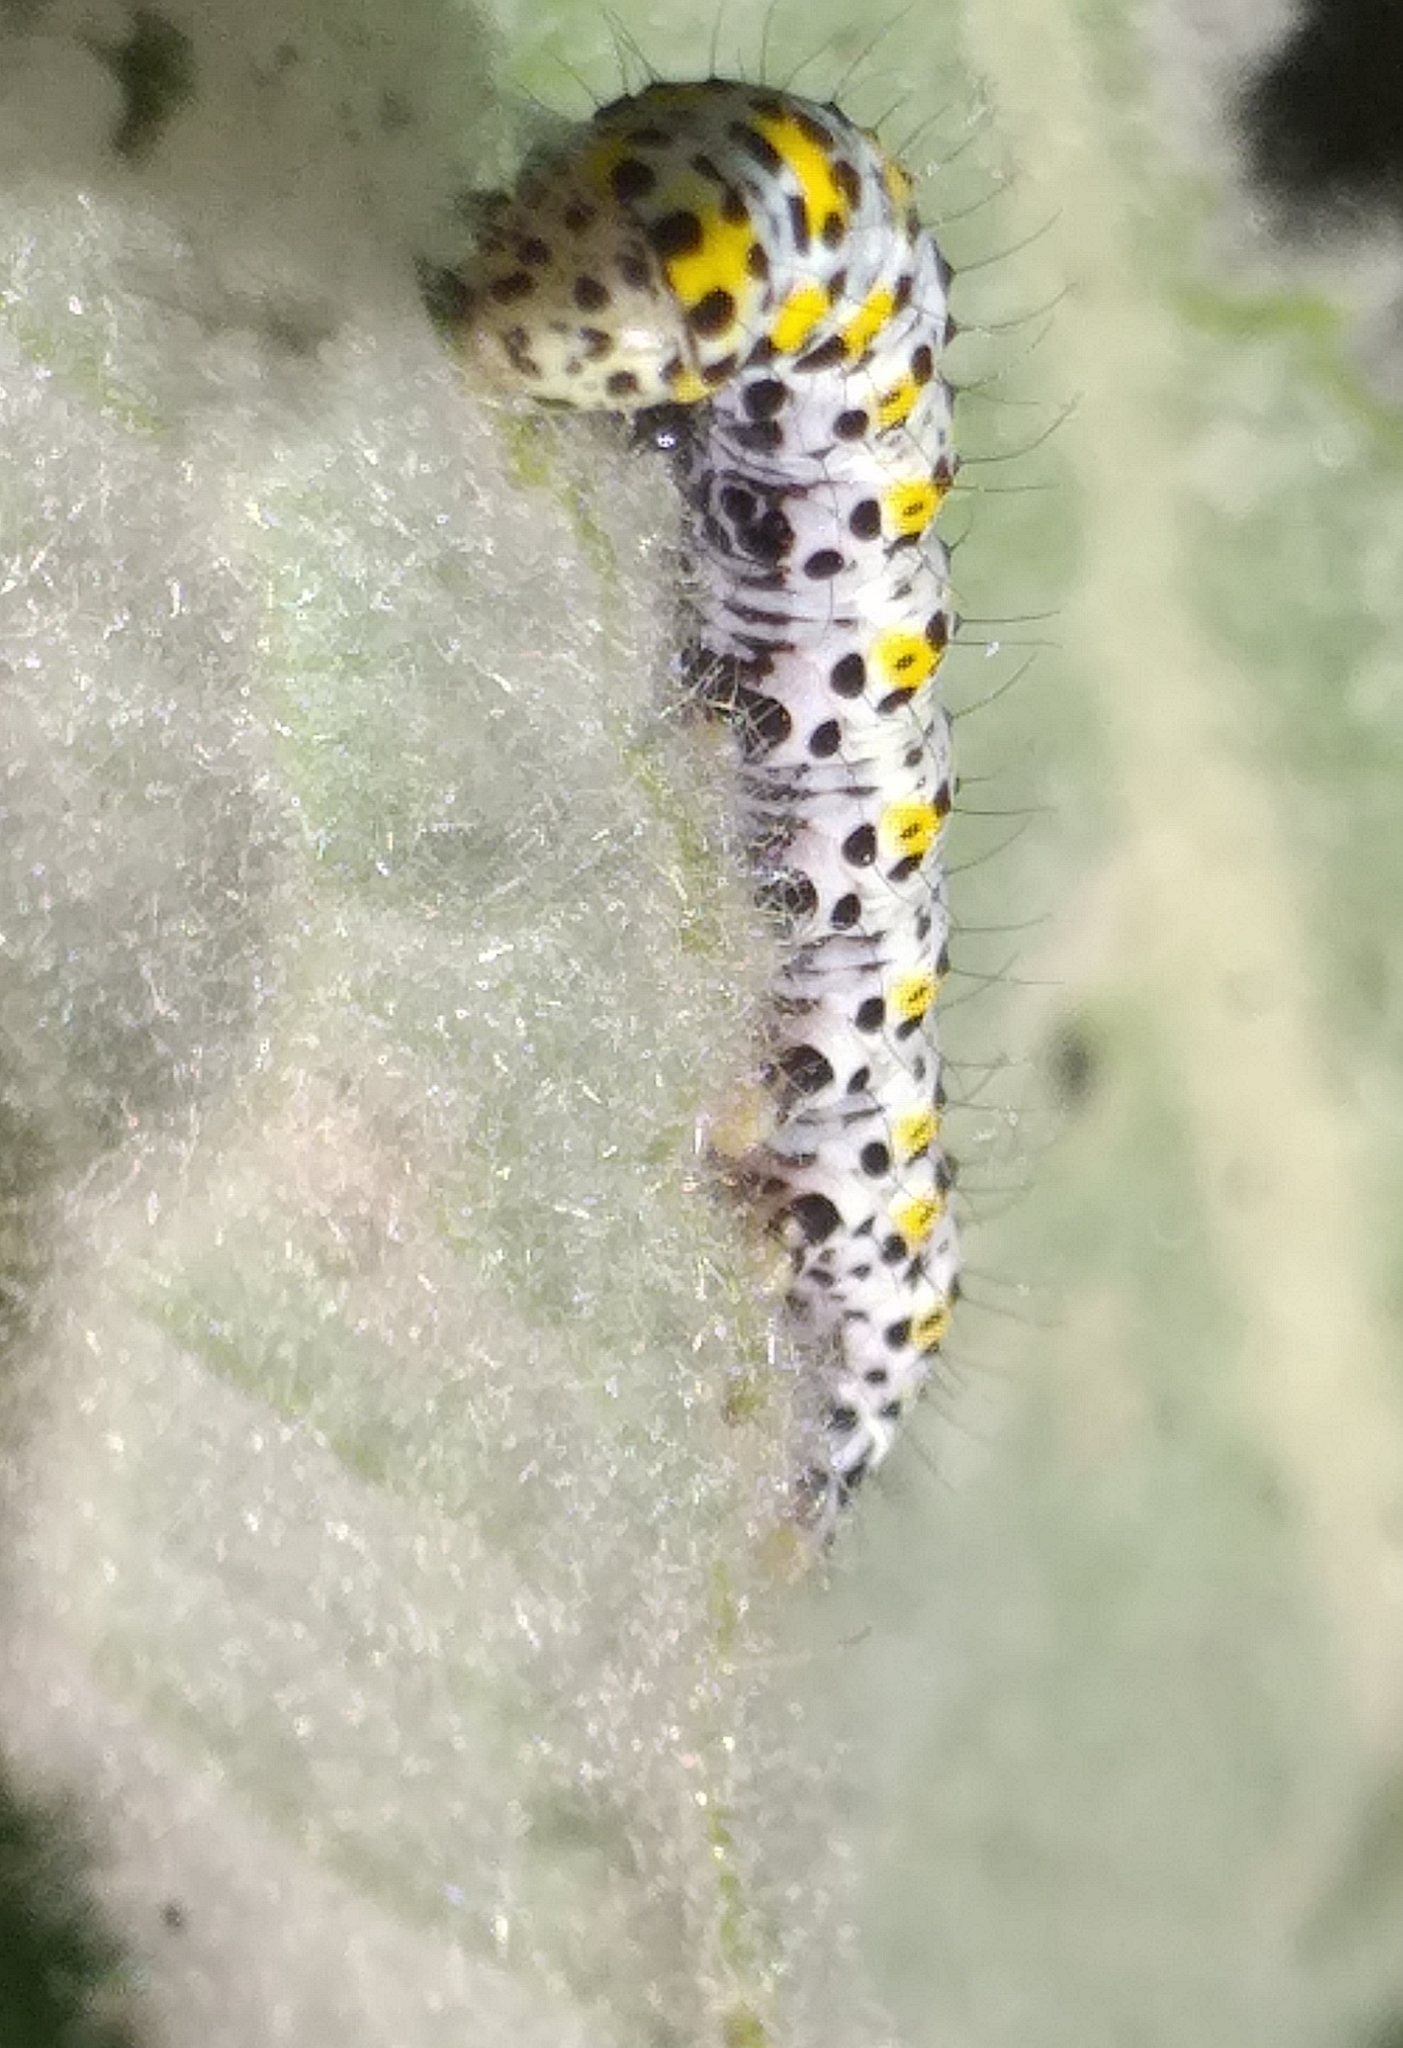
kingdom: Animalia
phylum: Arthropoda
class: Insecta
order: Lepidoptera
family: Noctuidae
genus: Cucullia
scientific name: Cucullia verbasci
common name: Mullein
